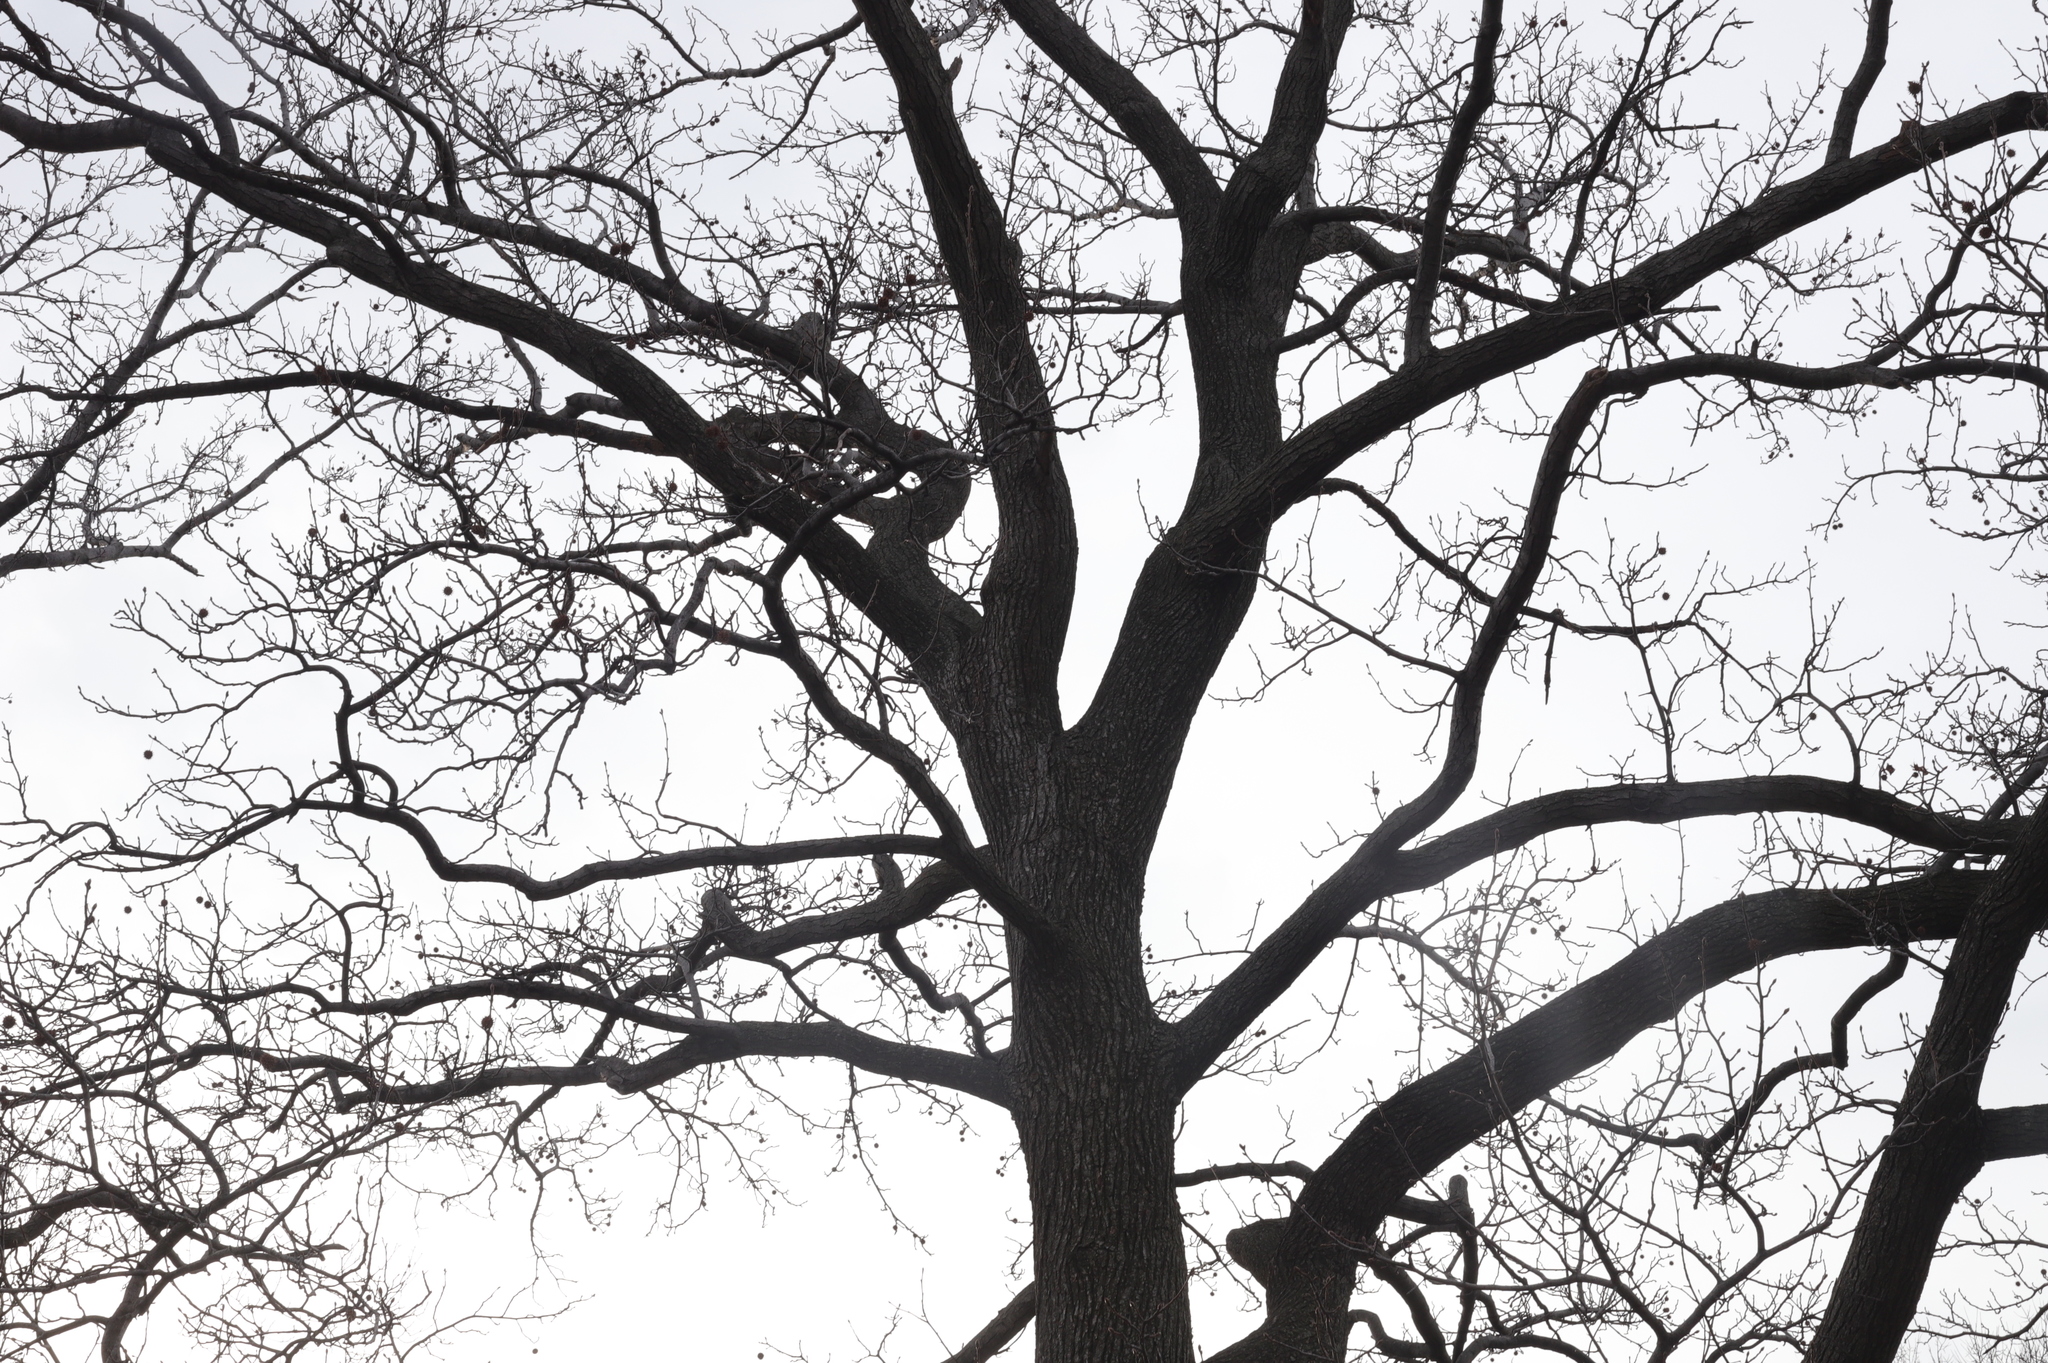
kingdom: Plantae
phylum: Tracheophyta
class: Magnoliopsida
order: Saxifragales
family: Altingiaceae
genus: Liquidambar
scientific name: Liquidambar styraciflua
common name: Sweet gum
